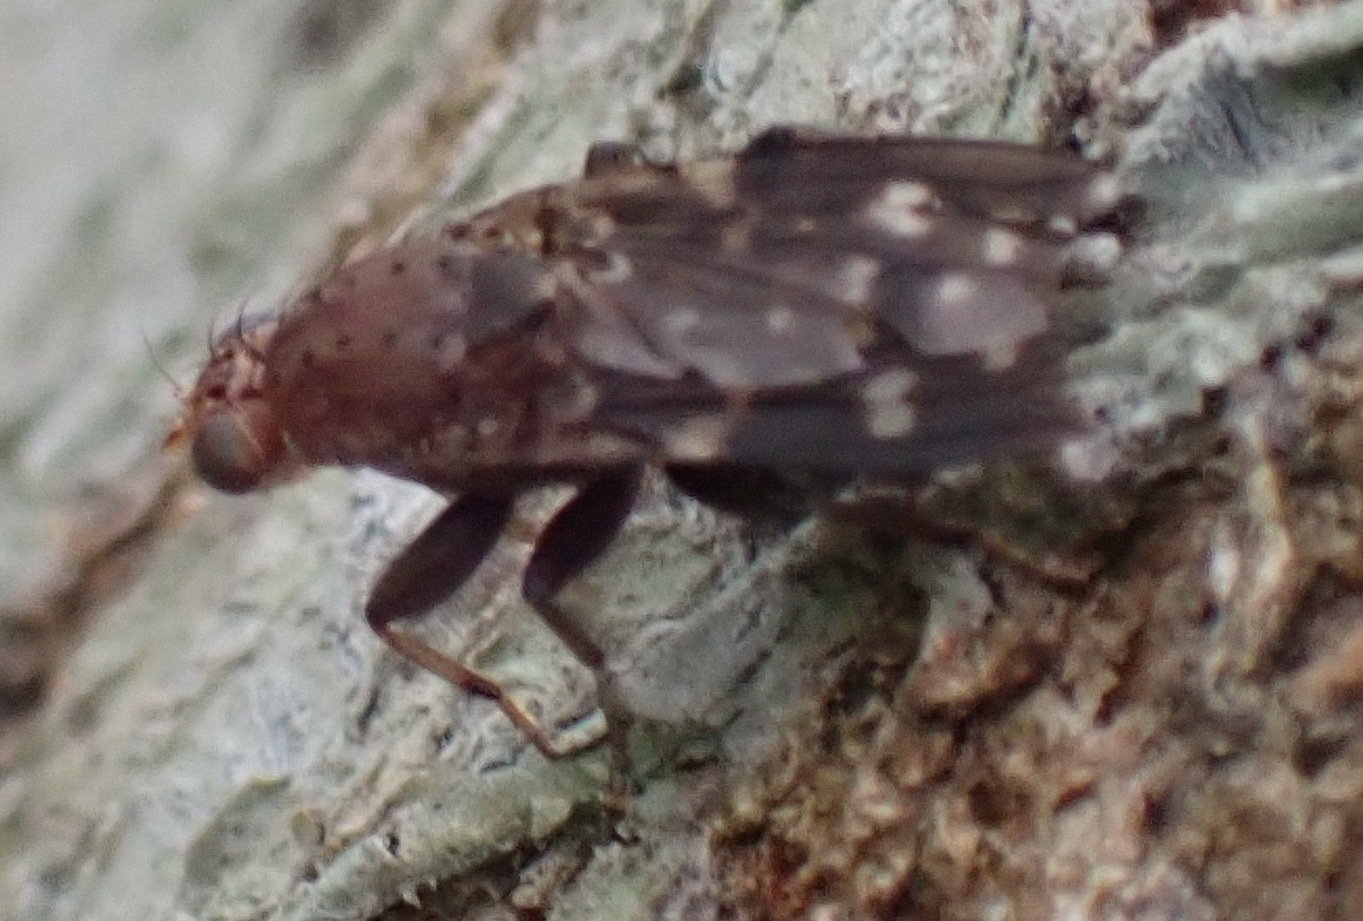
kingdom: Animalia
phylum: Arthropoda
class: Insecta
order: Diptera
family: Heleomyzidae
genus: Suillia
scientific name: Suillia picta
